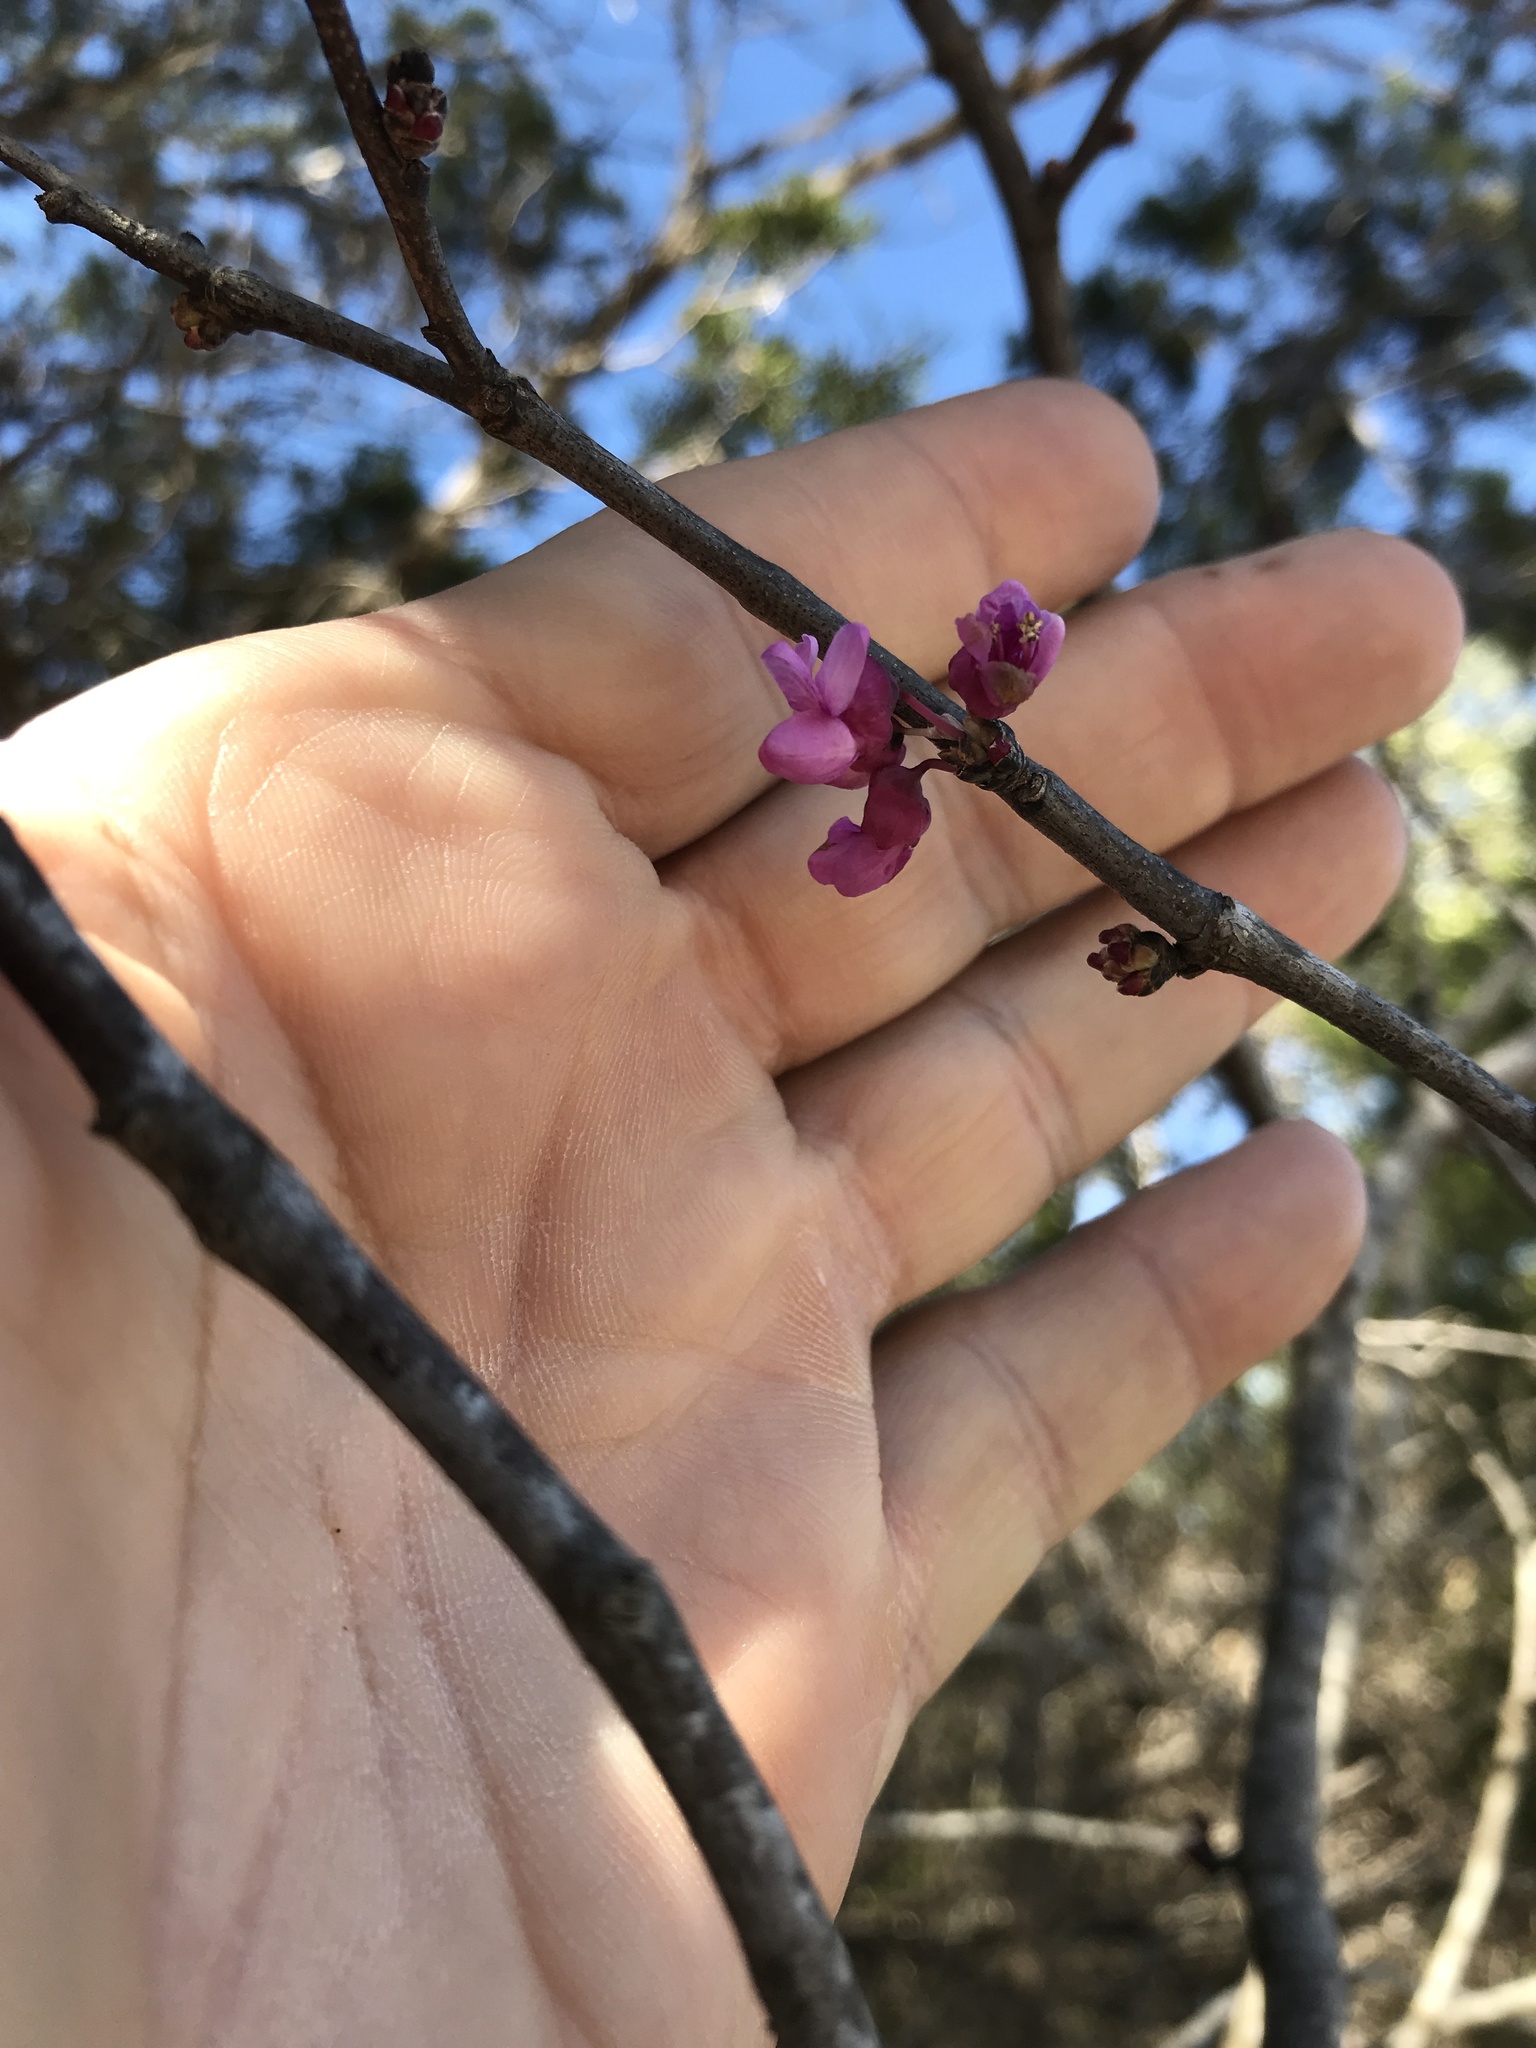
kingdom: Plantae
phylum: Tracheophyta
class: Magnoliopsida
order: Fabales
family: Fabaceae
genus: Cercis
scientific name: Cercis canadensis
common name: Eastern redbud
